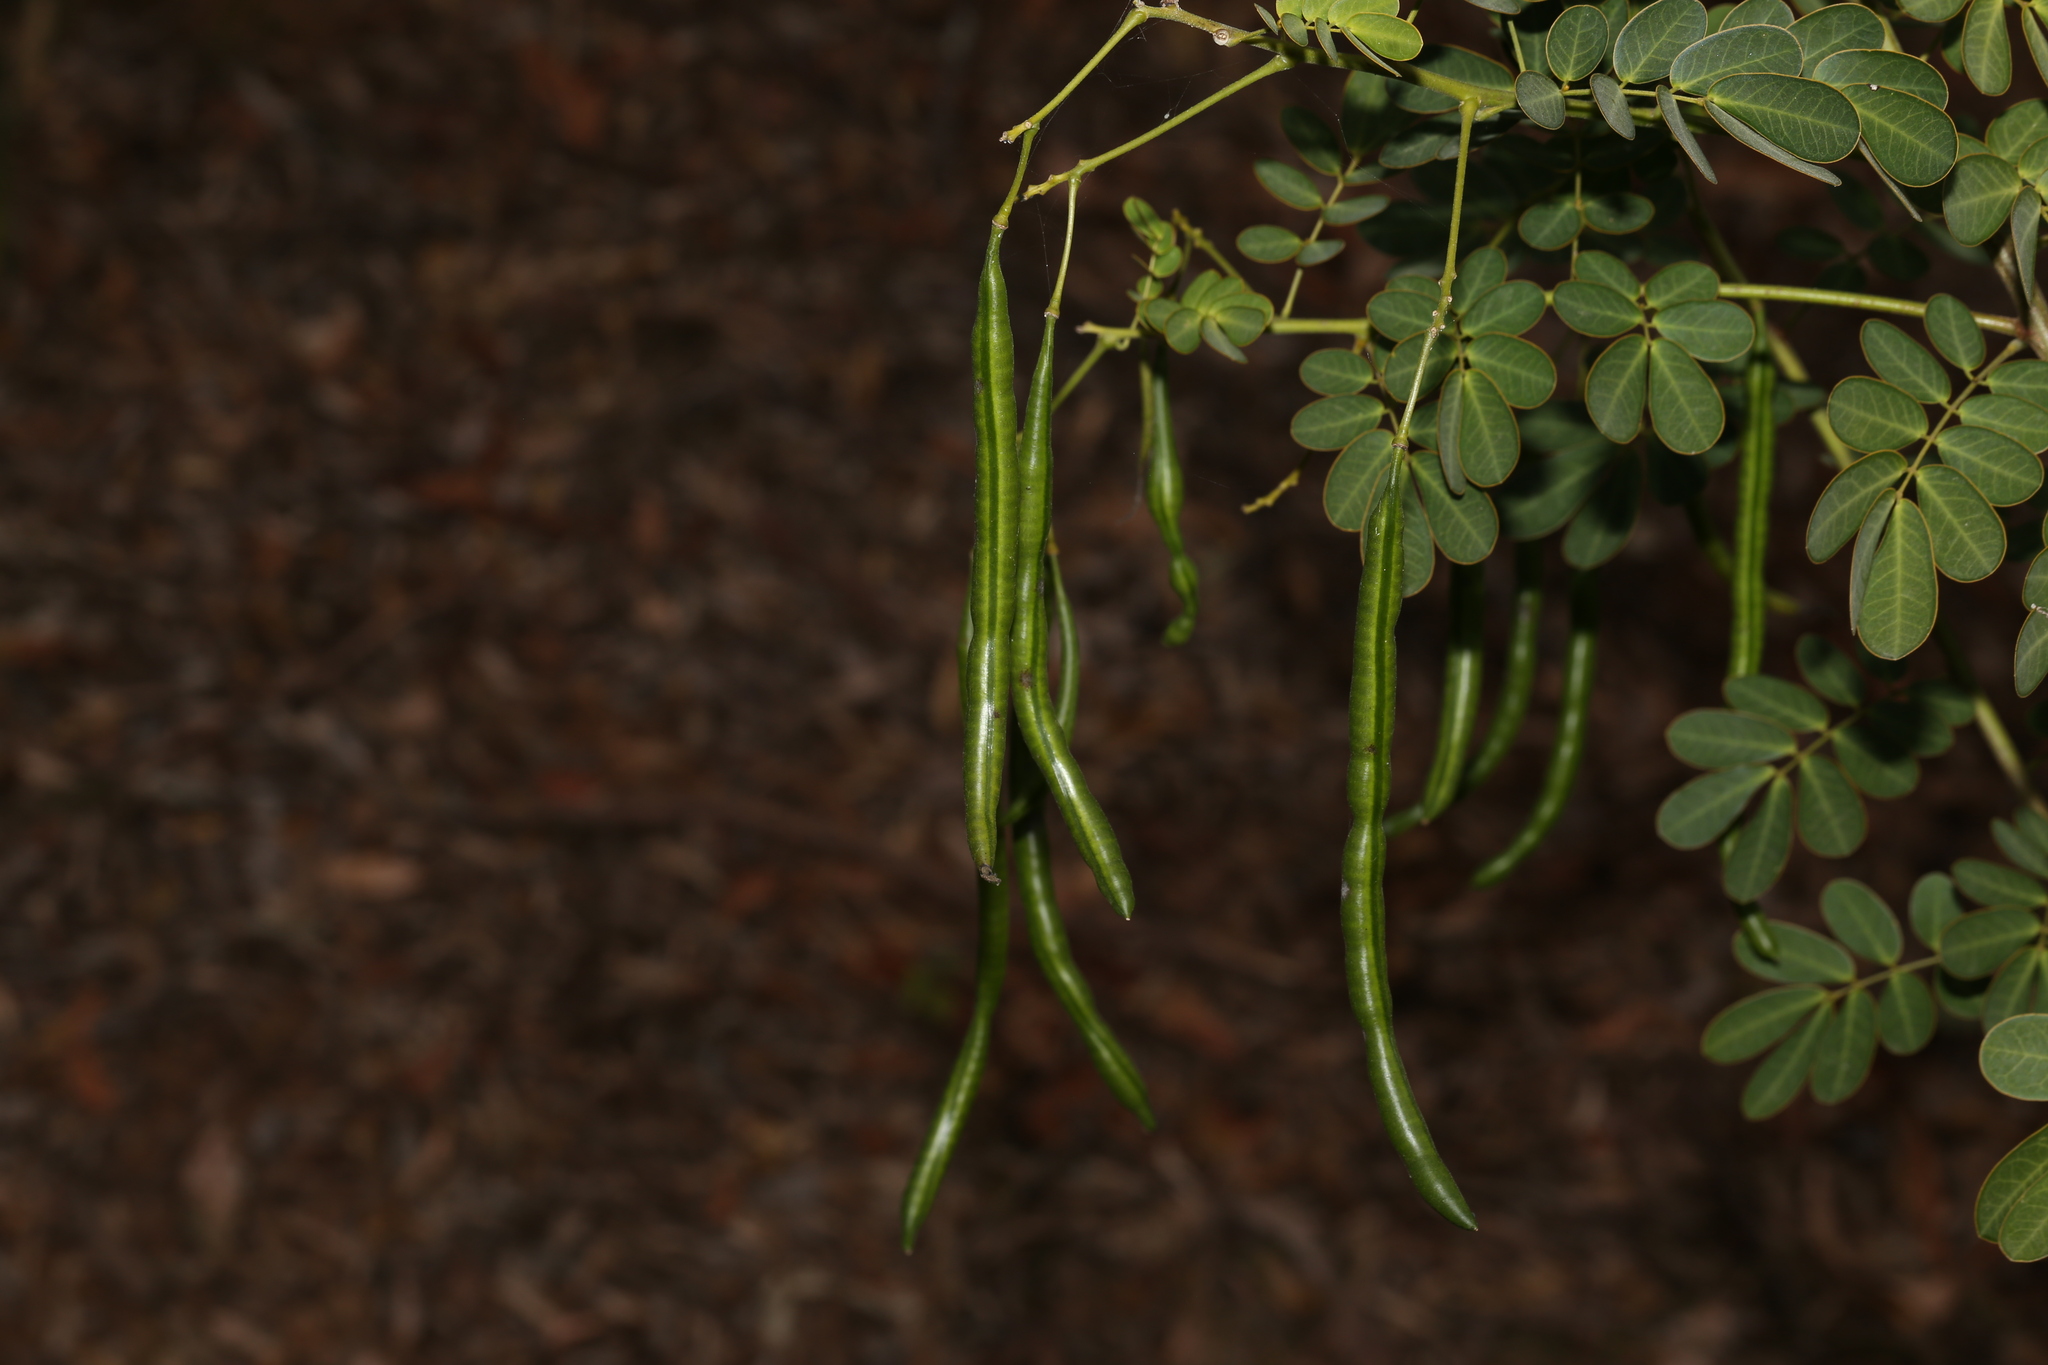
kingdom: Plantae
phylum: Tracheophyta
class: Magnoliopsida
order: Fabales
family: Fabaceae
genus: Senna
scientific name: Senna pendula
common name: Easter cassia
